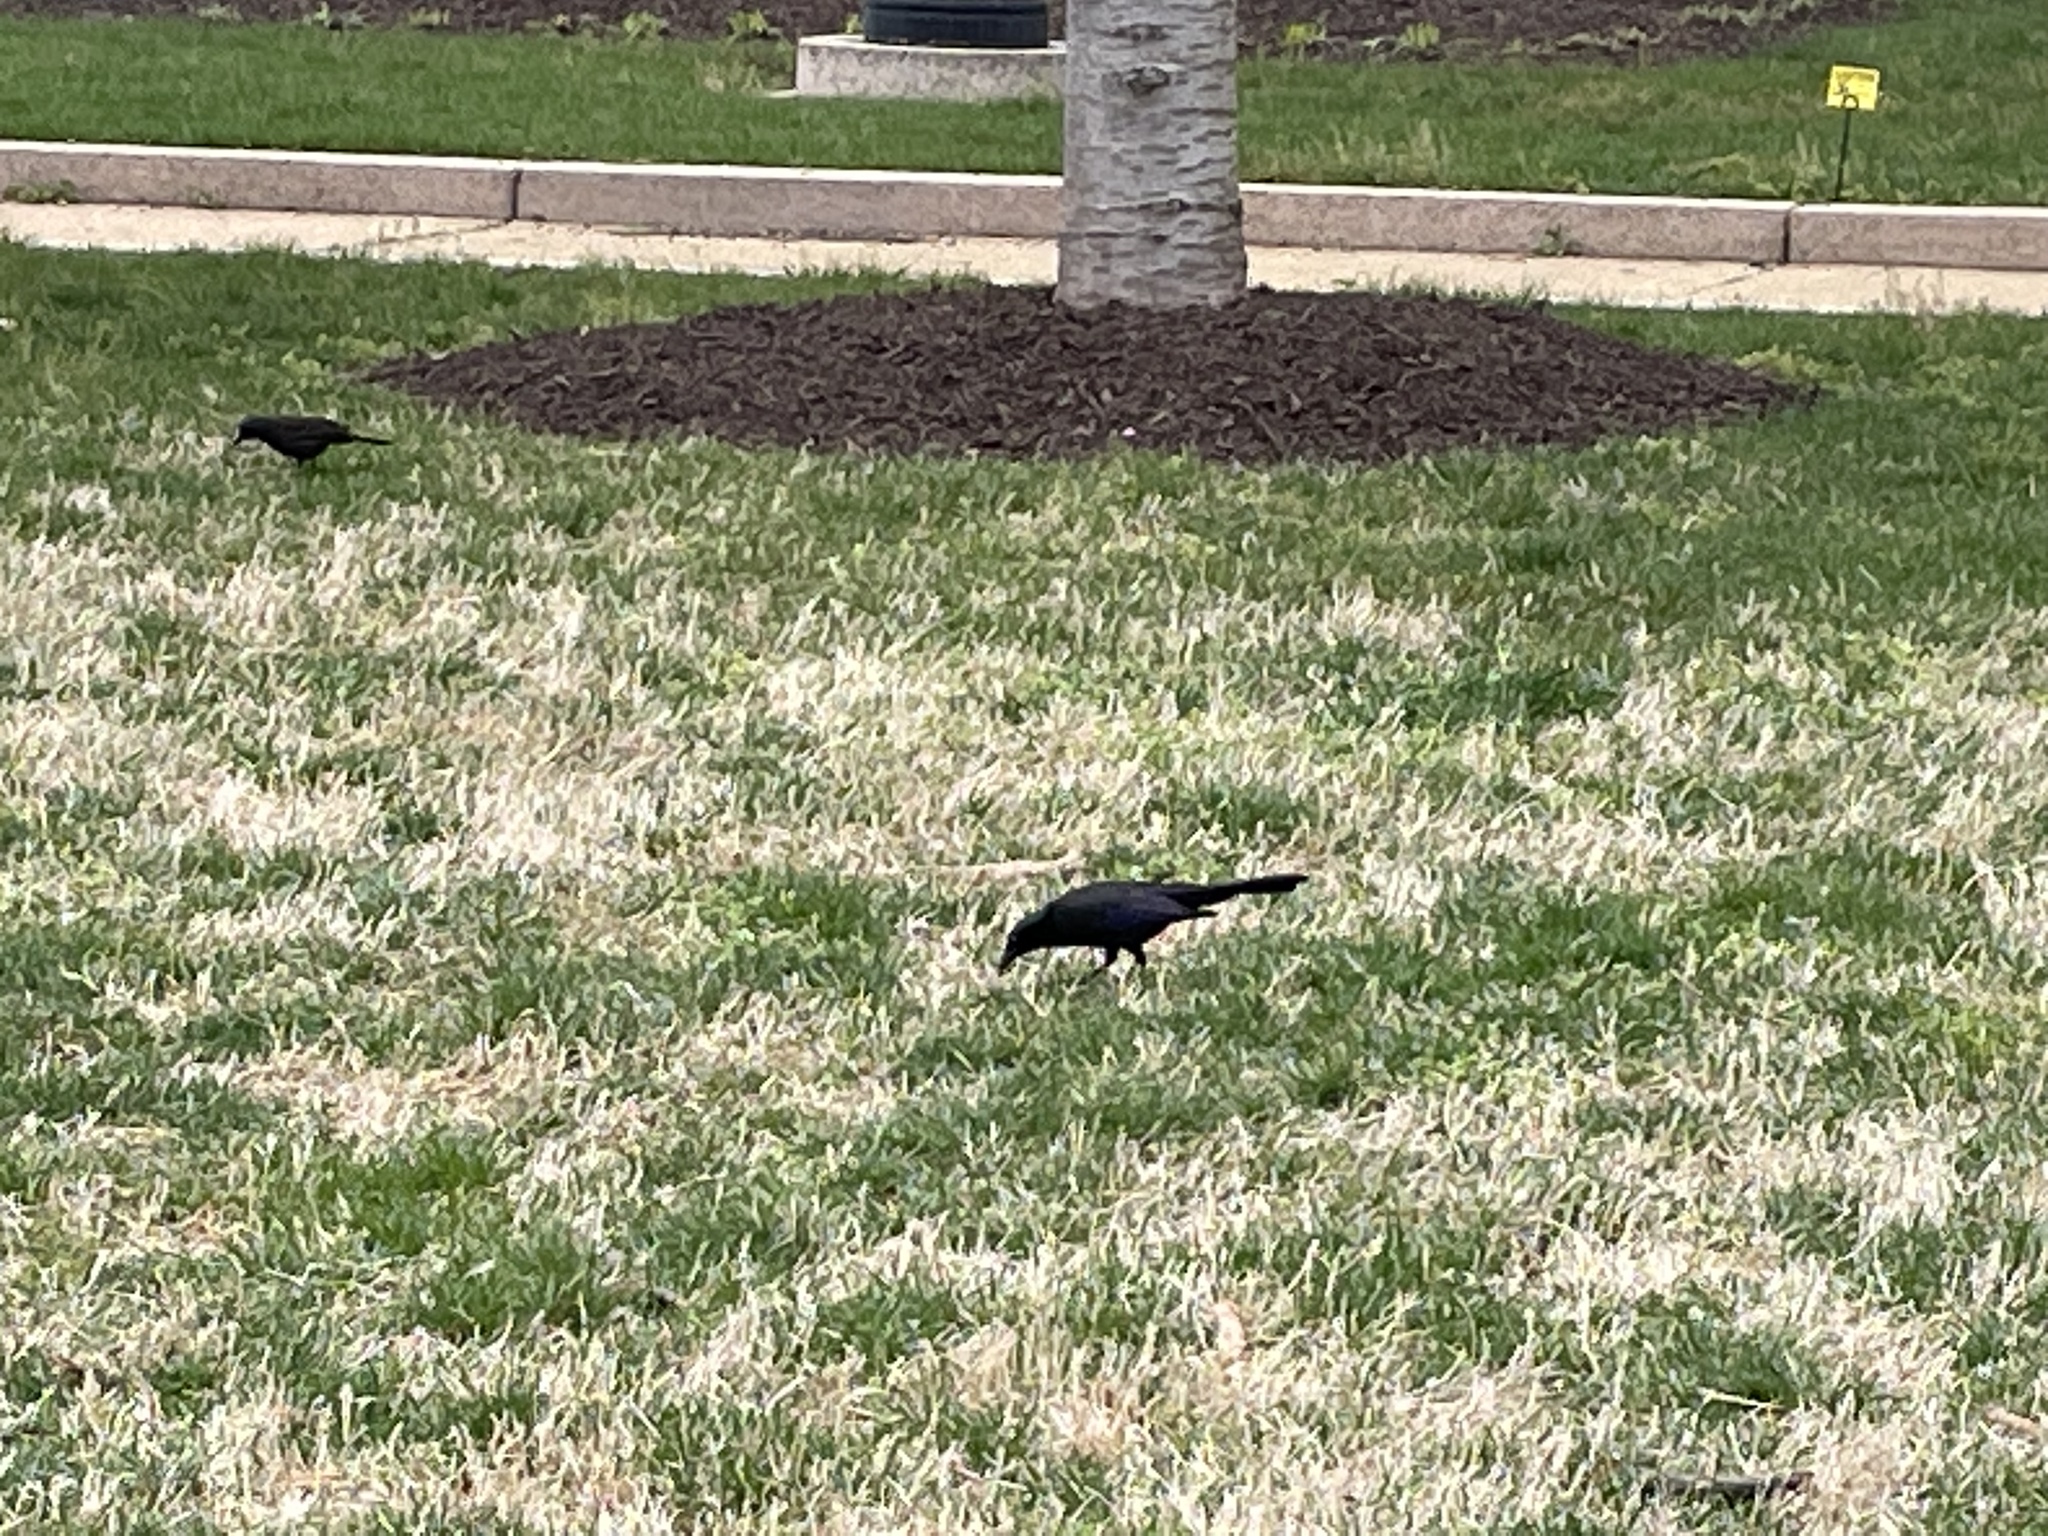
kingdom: Animalia
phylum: Chordata
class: Aves
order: Passeriformes
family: Icteridae
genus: Quiscalus
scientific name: Quiscalus quiscula
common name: Common grackle
